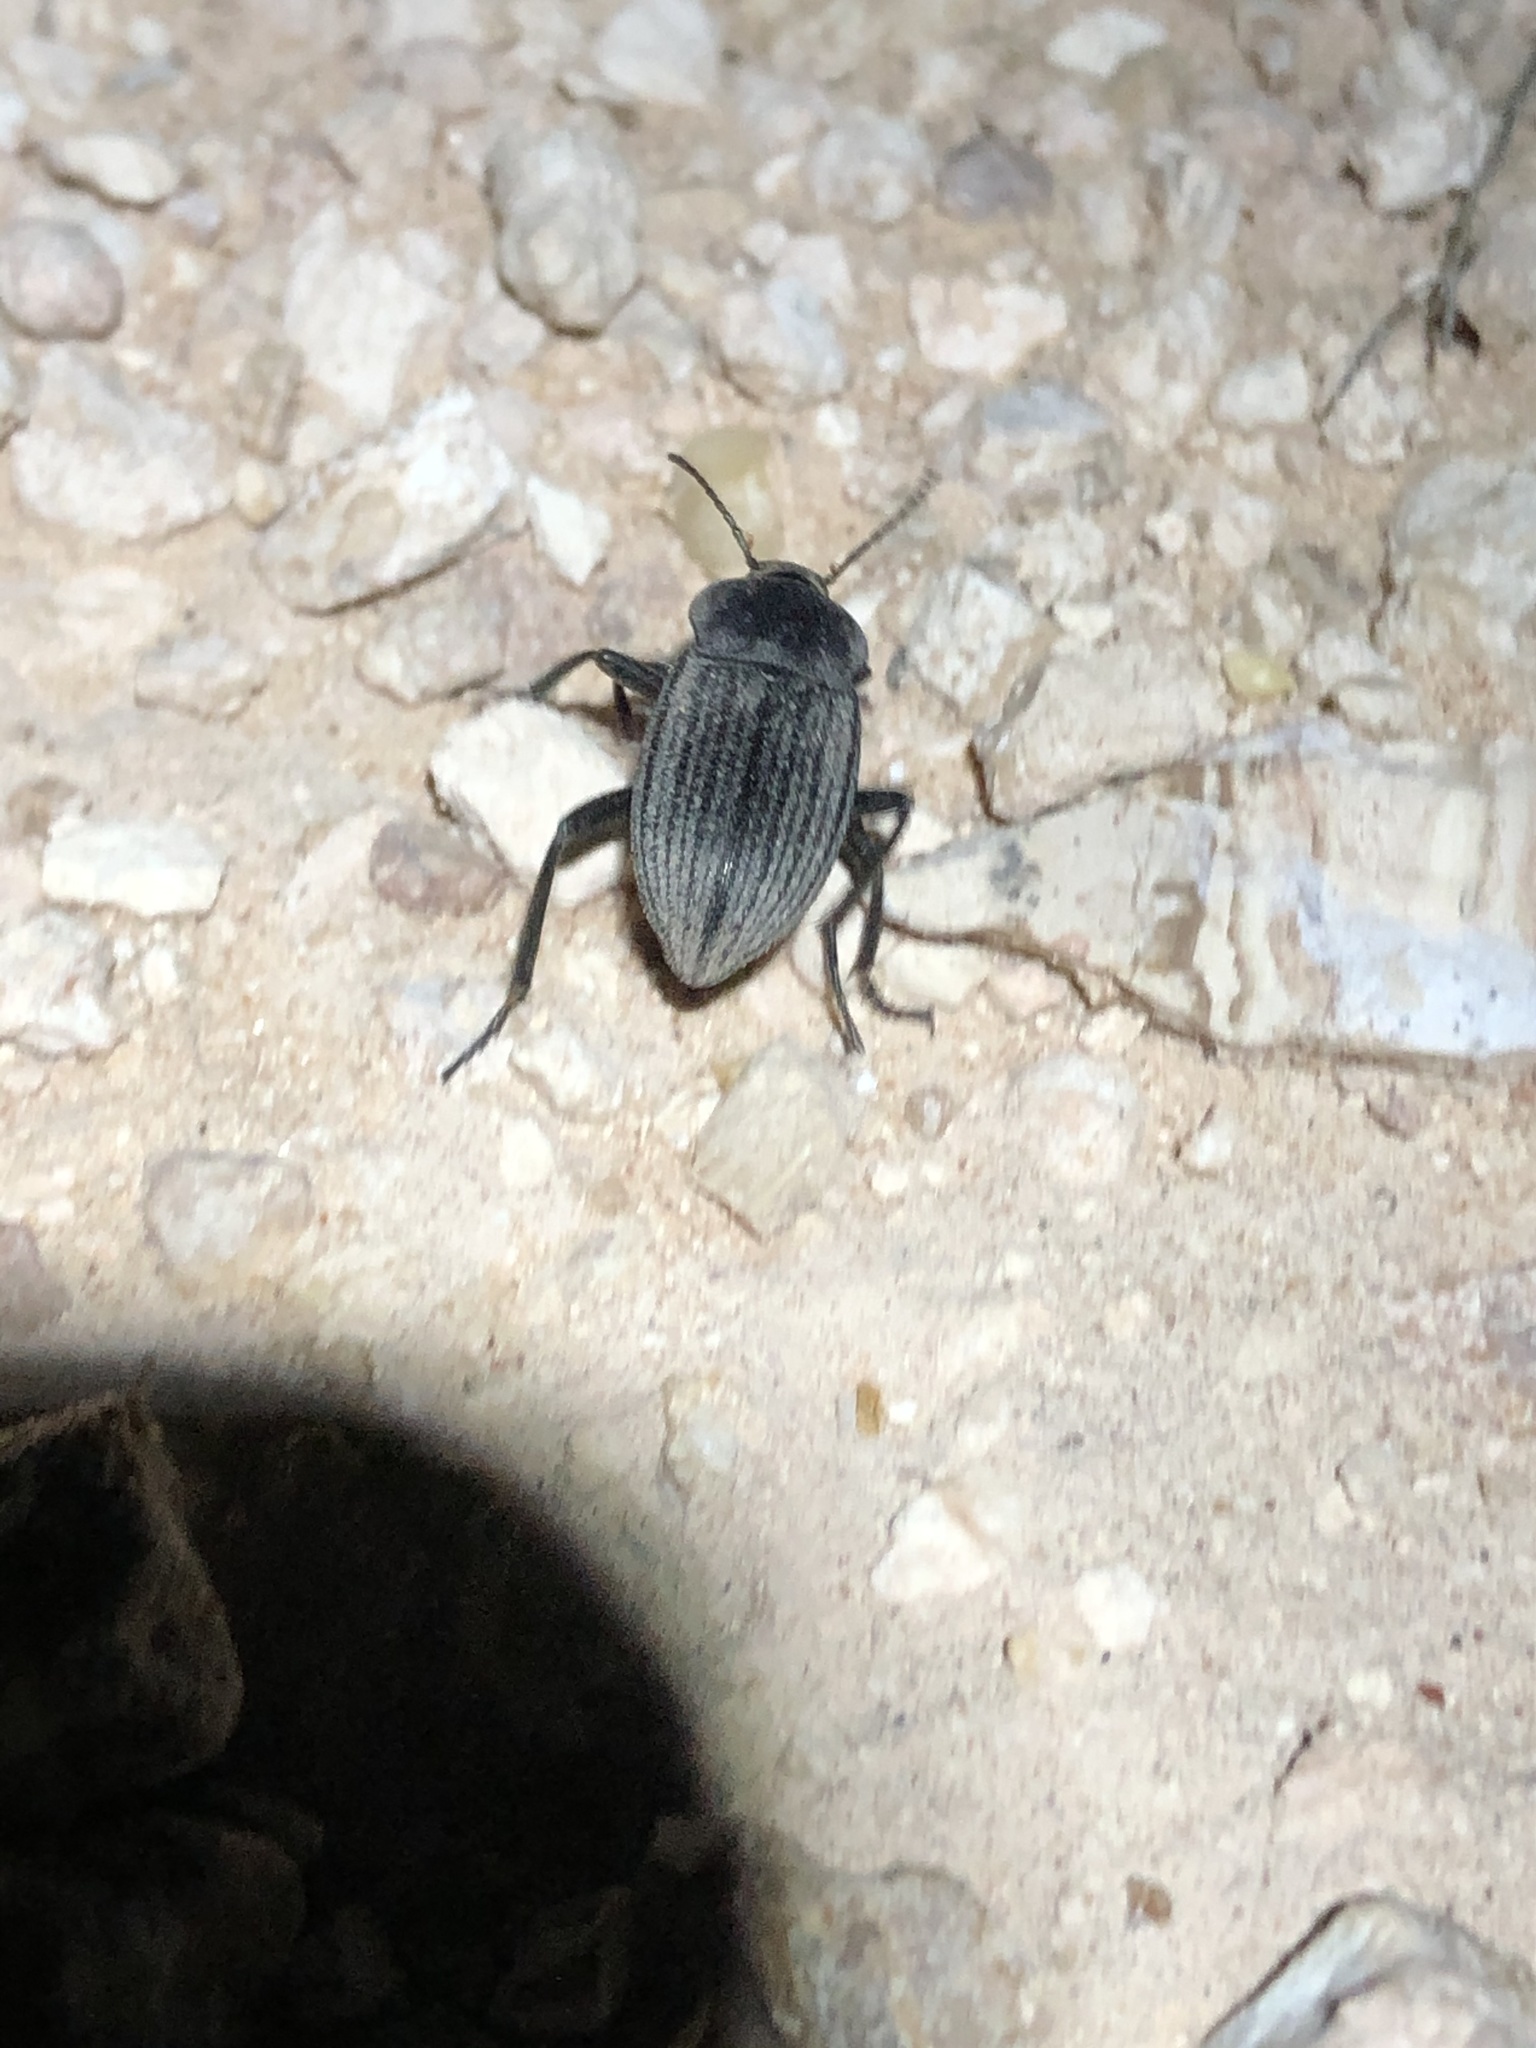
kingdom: Animalia
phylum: Arthropoda
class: Insecta
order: Coleoptera
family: Tenebrionidae
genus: Eleodes
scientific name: Eleodes tricostata
